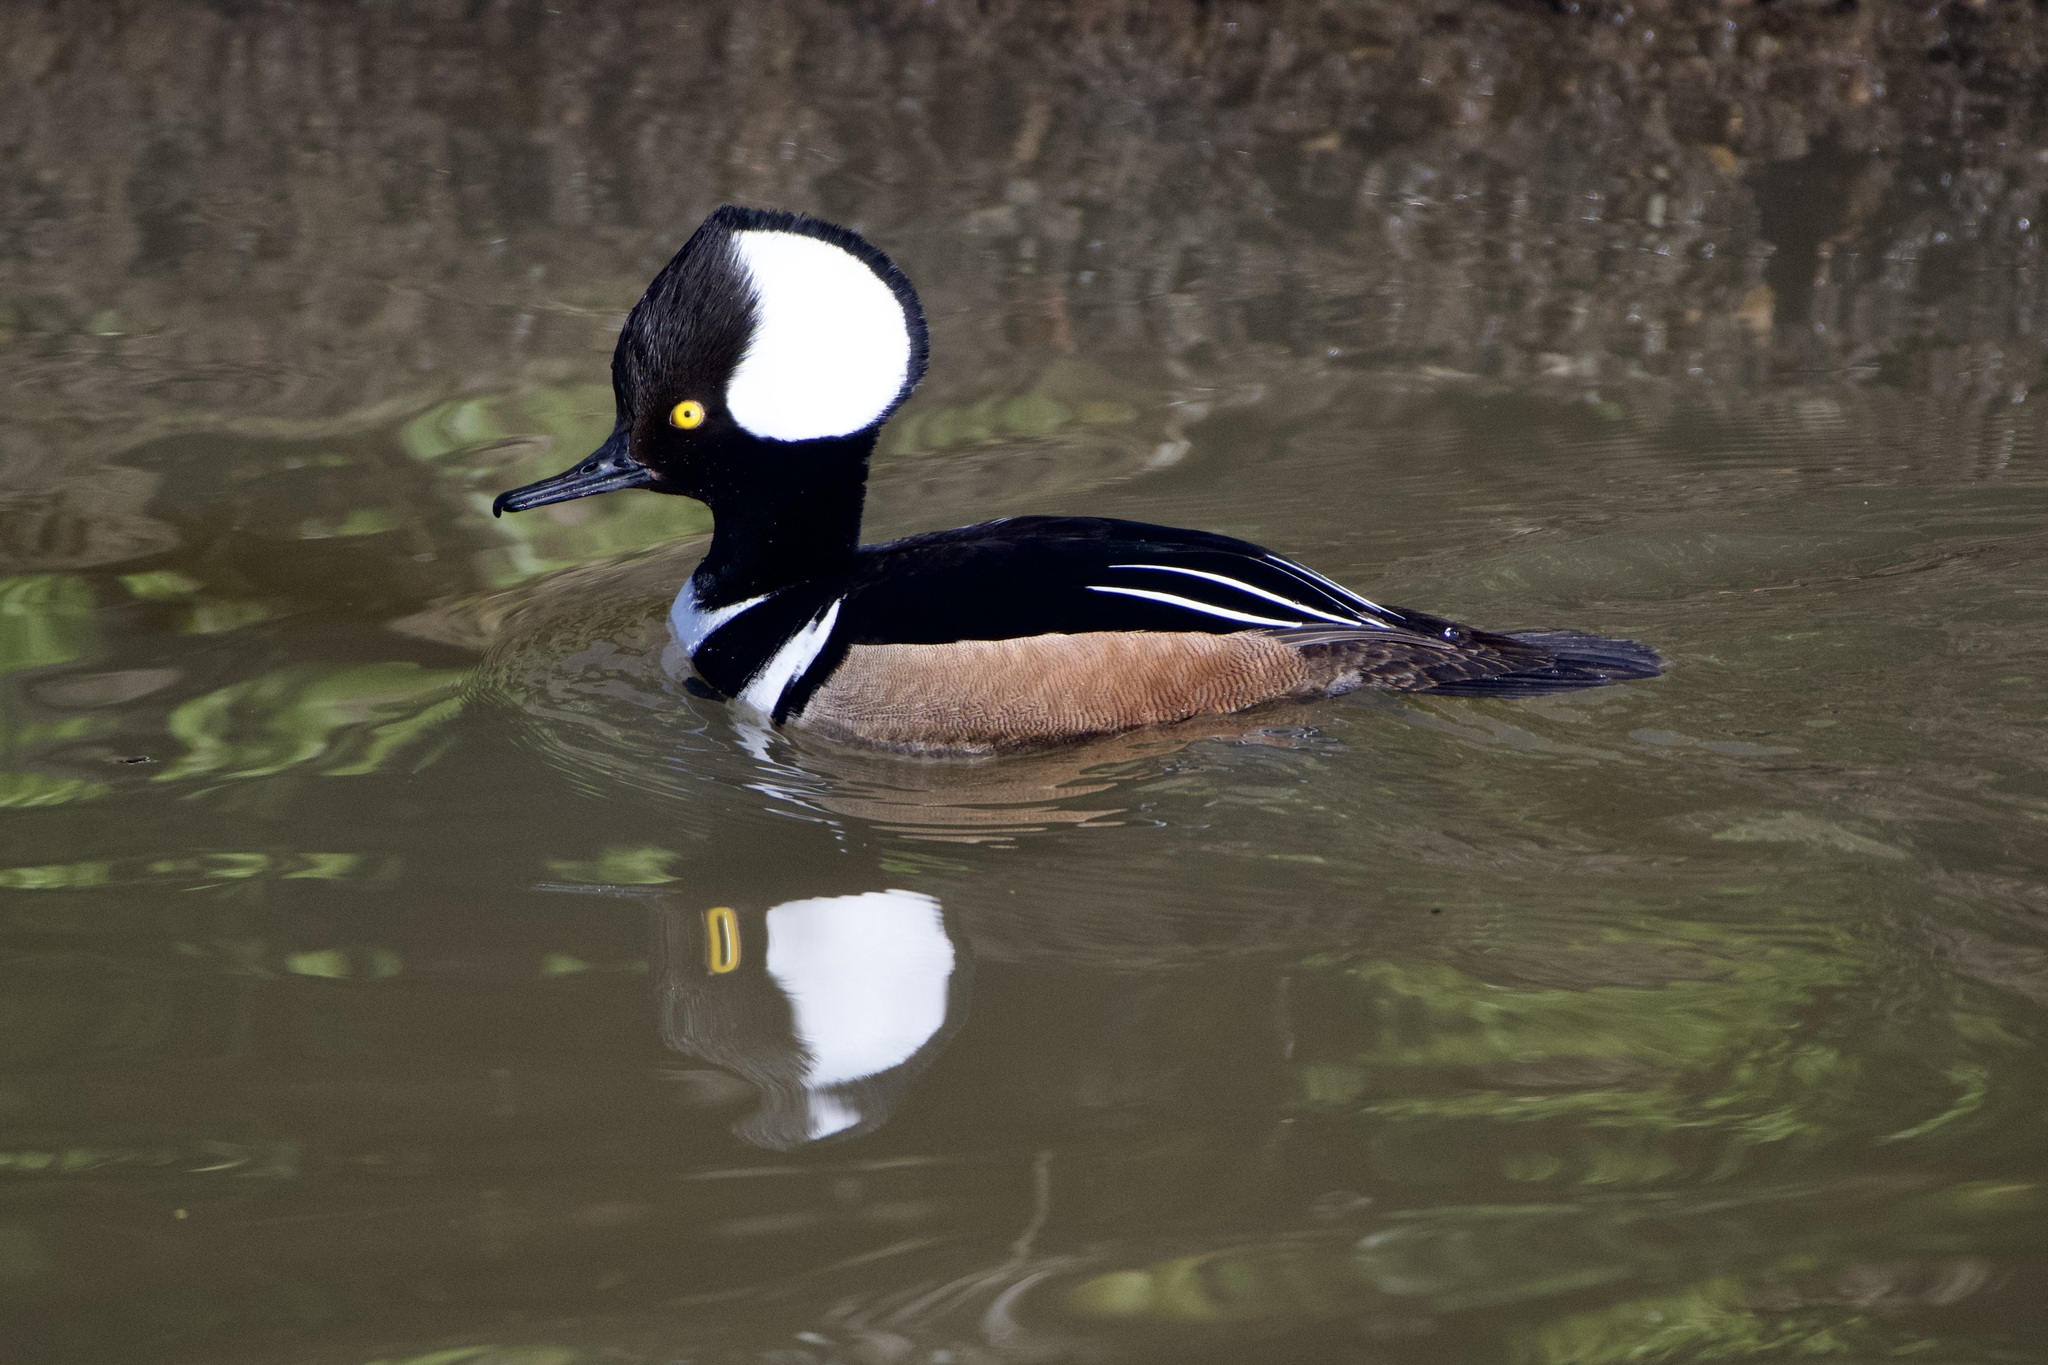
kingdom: Animalia
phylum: Chordata
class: Aves
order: Anseriformes
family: Anatidae
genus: Lophodytes
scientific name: Lophodytes cucullatus
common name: Hooded merganser
